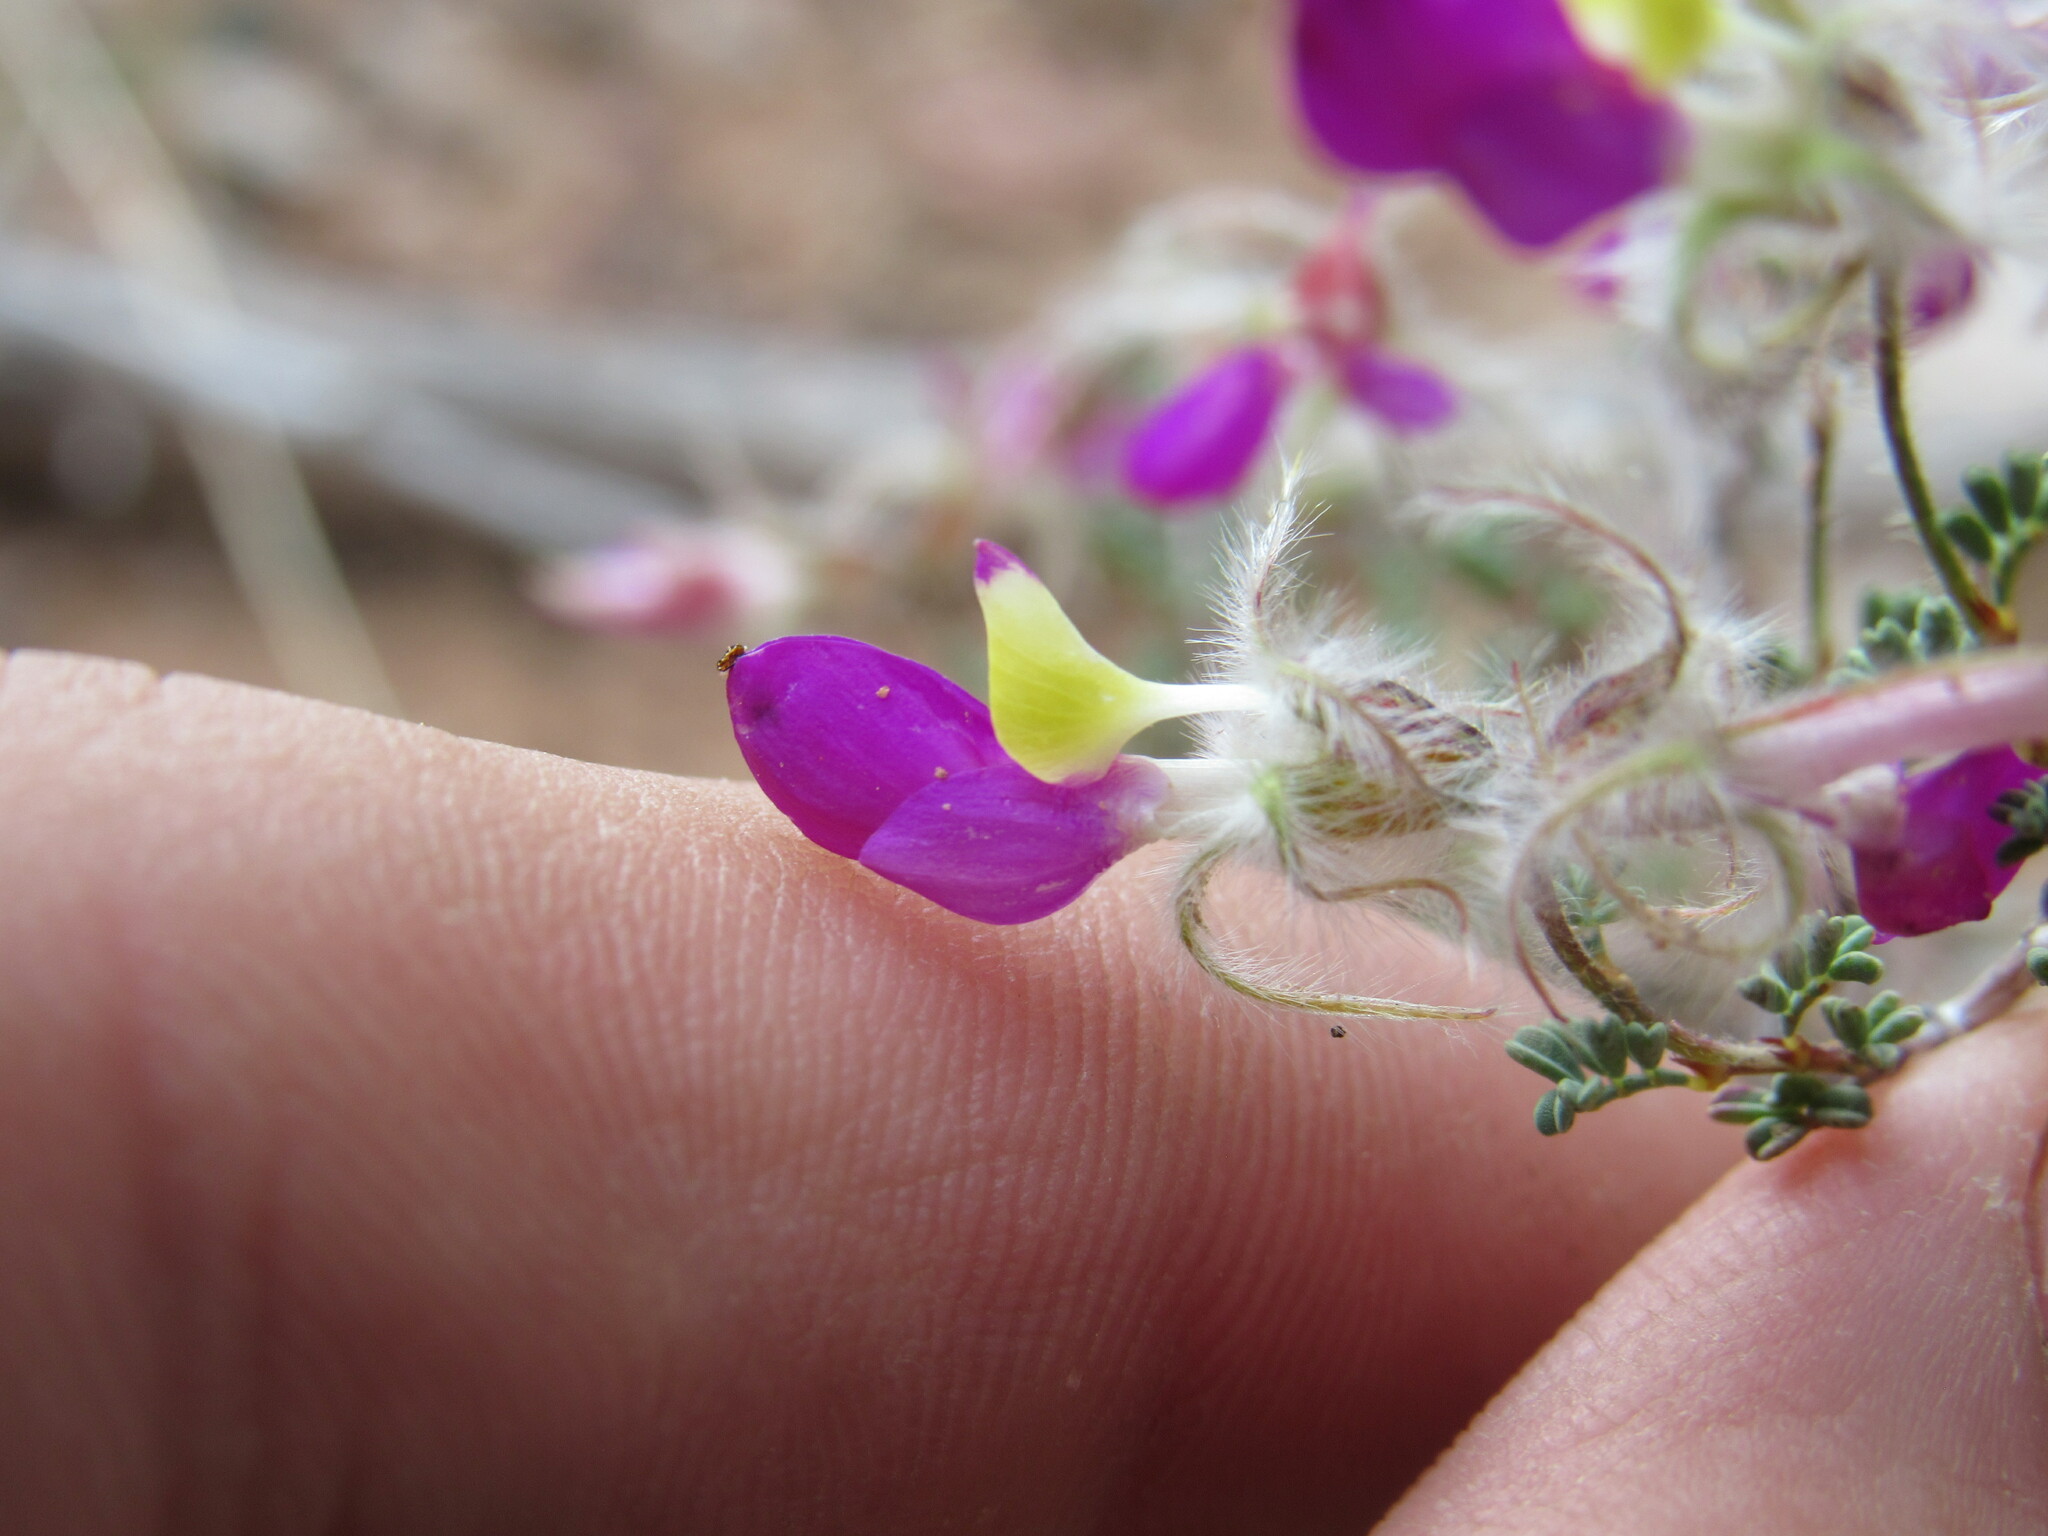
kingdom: Plantae
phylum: Tracheophyta
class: Magnoliopsida
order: Fabales
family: Fabaceae
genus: Dalea
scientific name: Dalea formosa
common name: Feather-plume dalea
